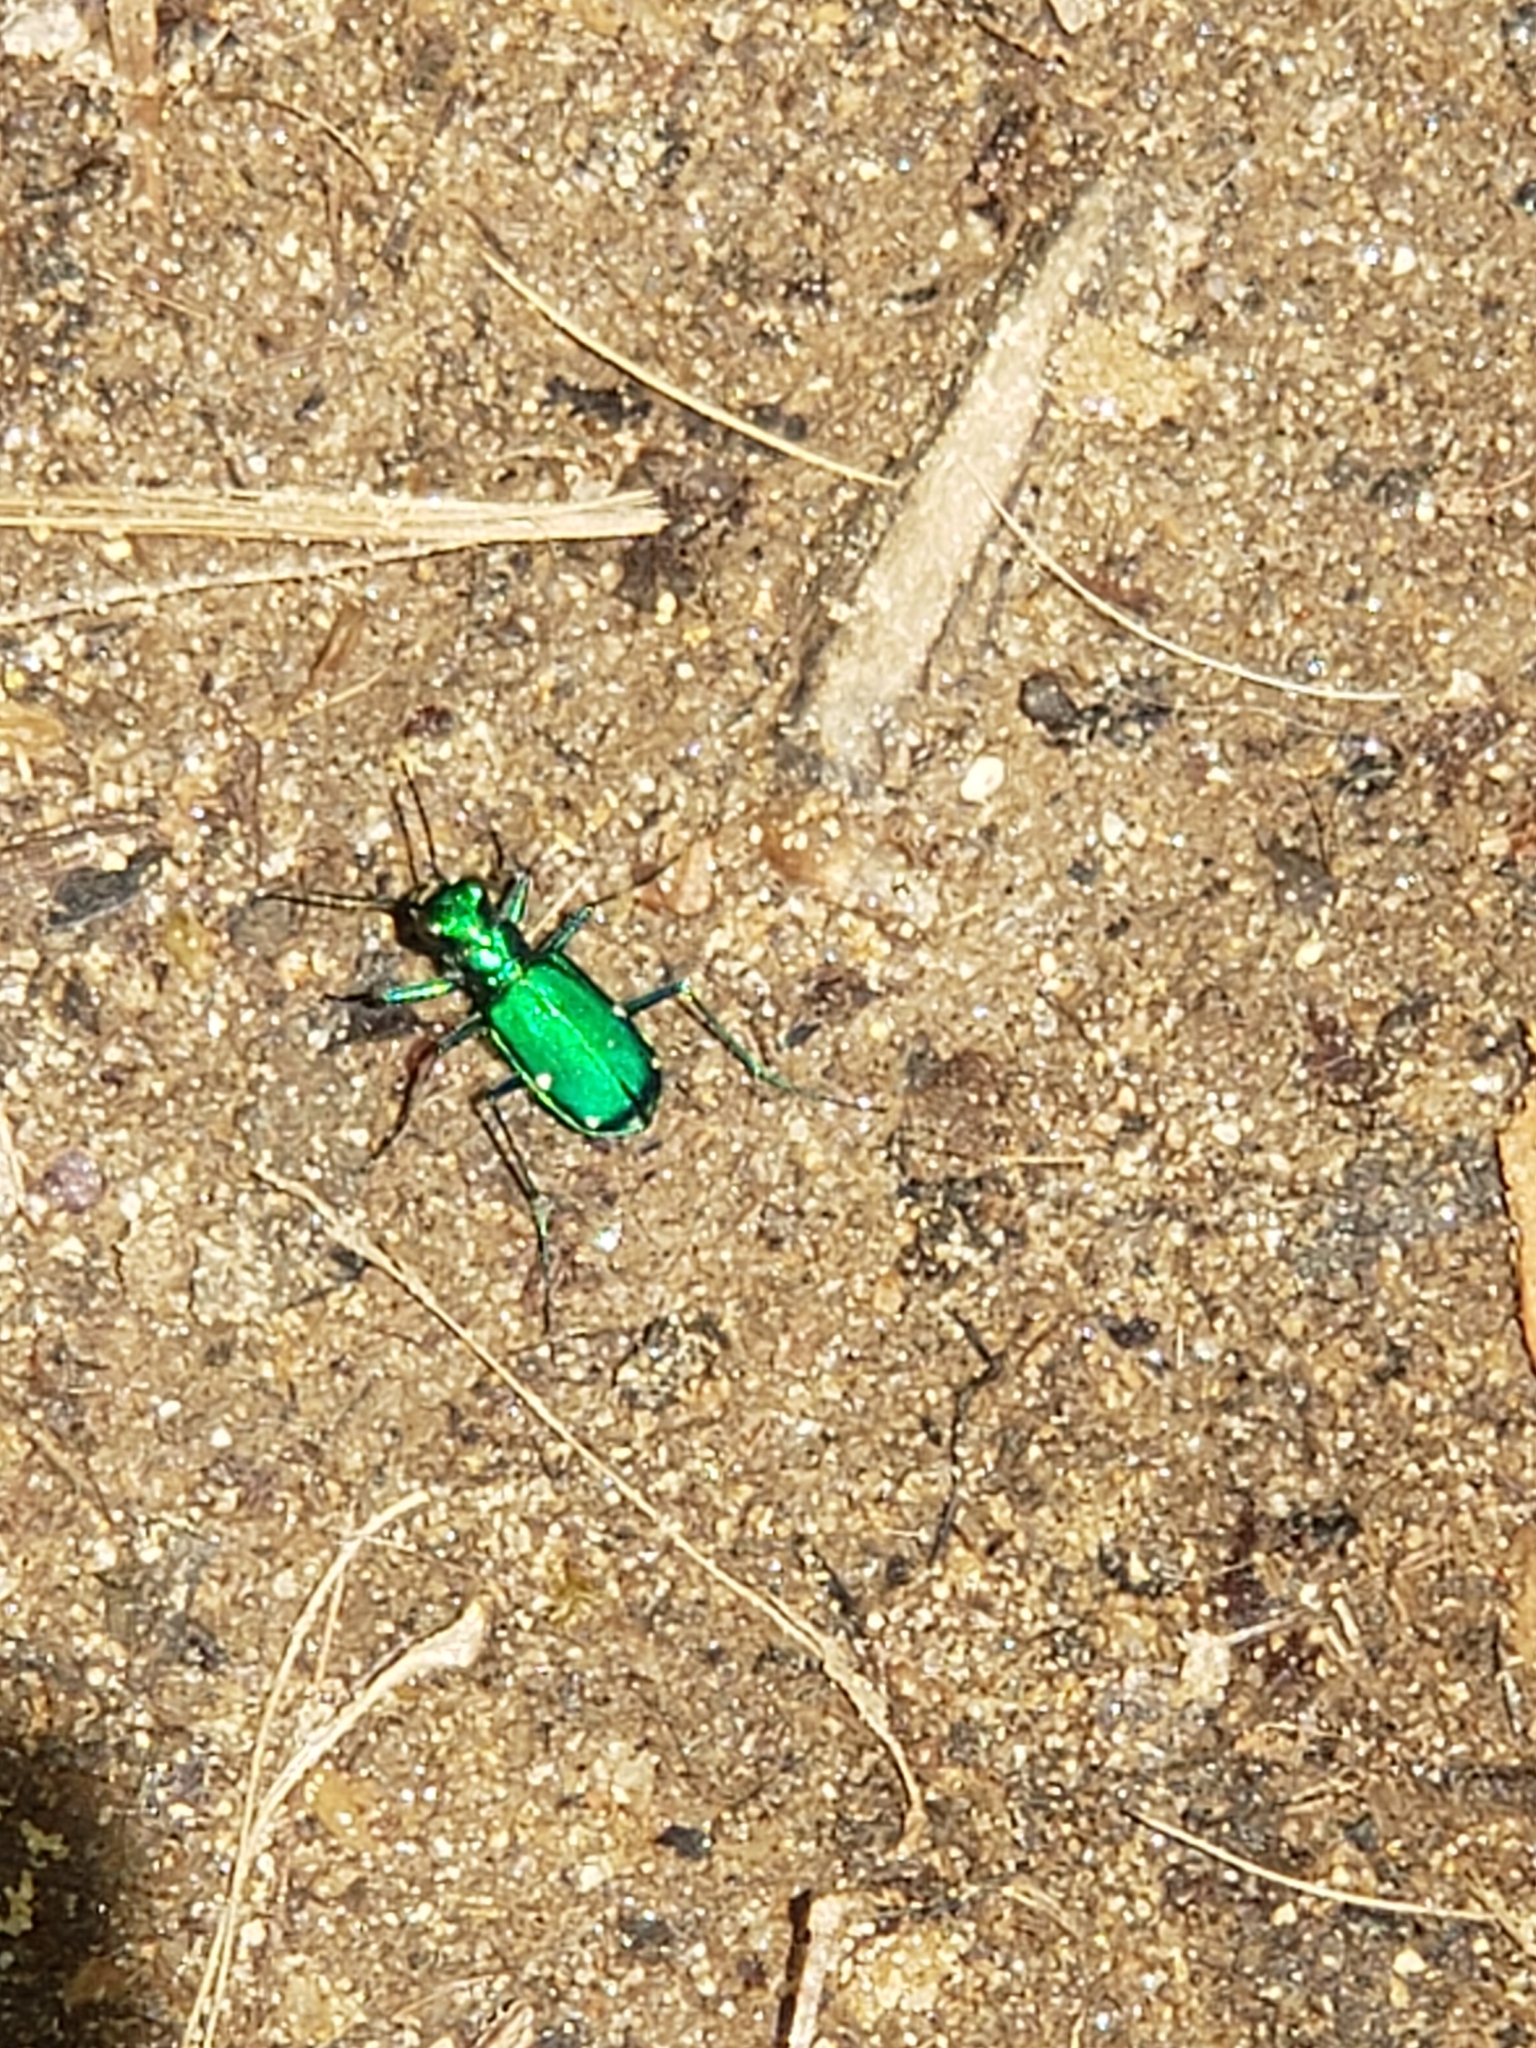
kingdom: Animalia
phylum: Arthropoda
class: Insecta
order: Coleoptera
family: Carabidae
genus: Cicindela
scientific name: Cicindela sexguttata
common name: Six-spotted tiger beetle
